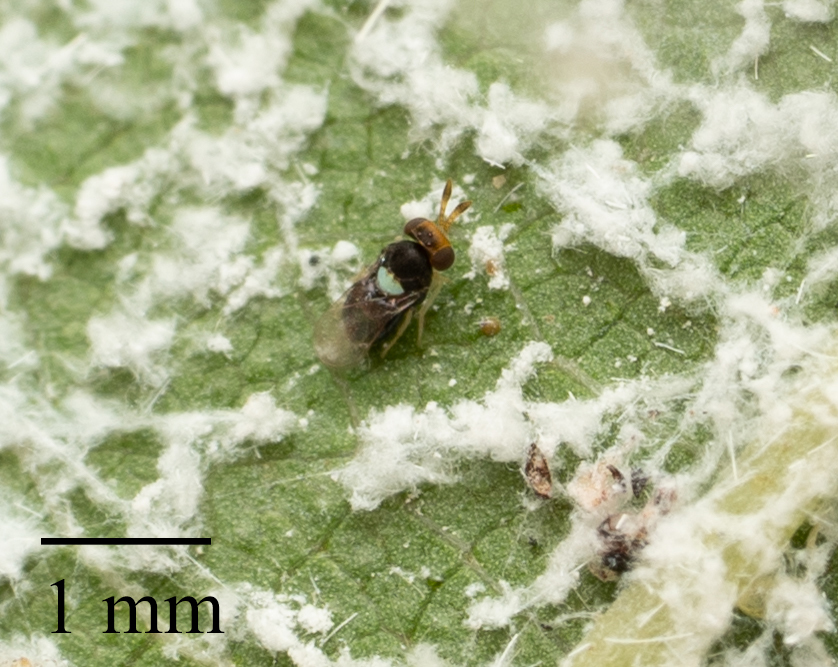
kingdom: Animalia
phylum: Arthropoda
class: Insecta
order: Hymenoptera
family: Aphelinidae
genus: Encarsiella
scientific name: Encarsiella noyesi
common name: Parasitoid wasp
